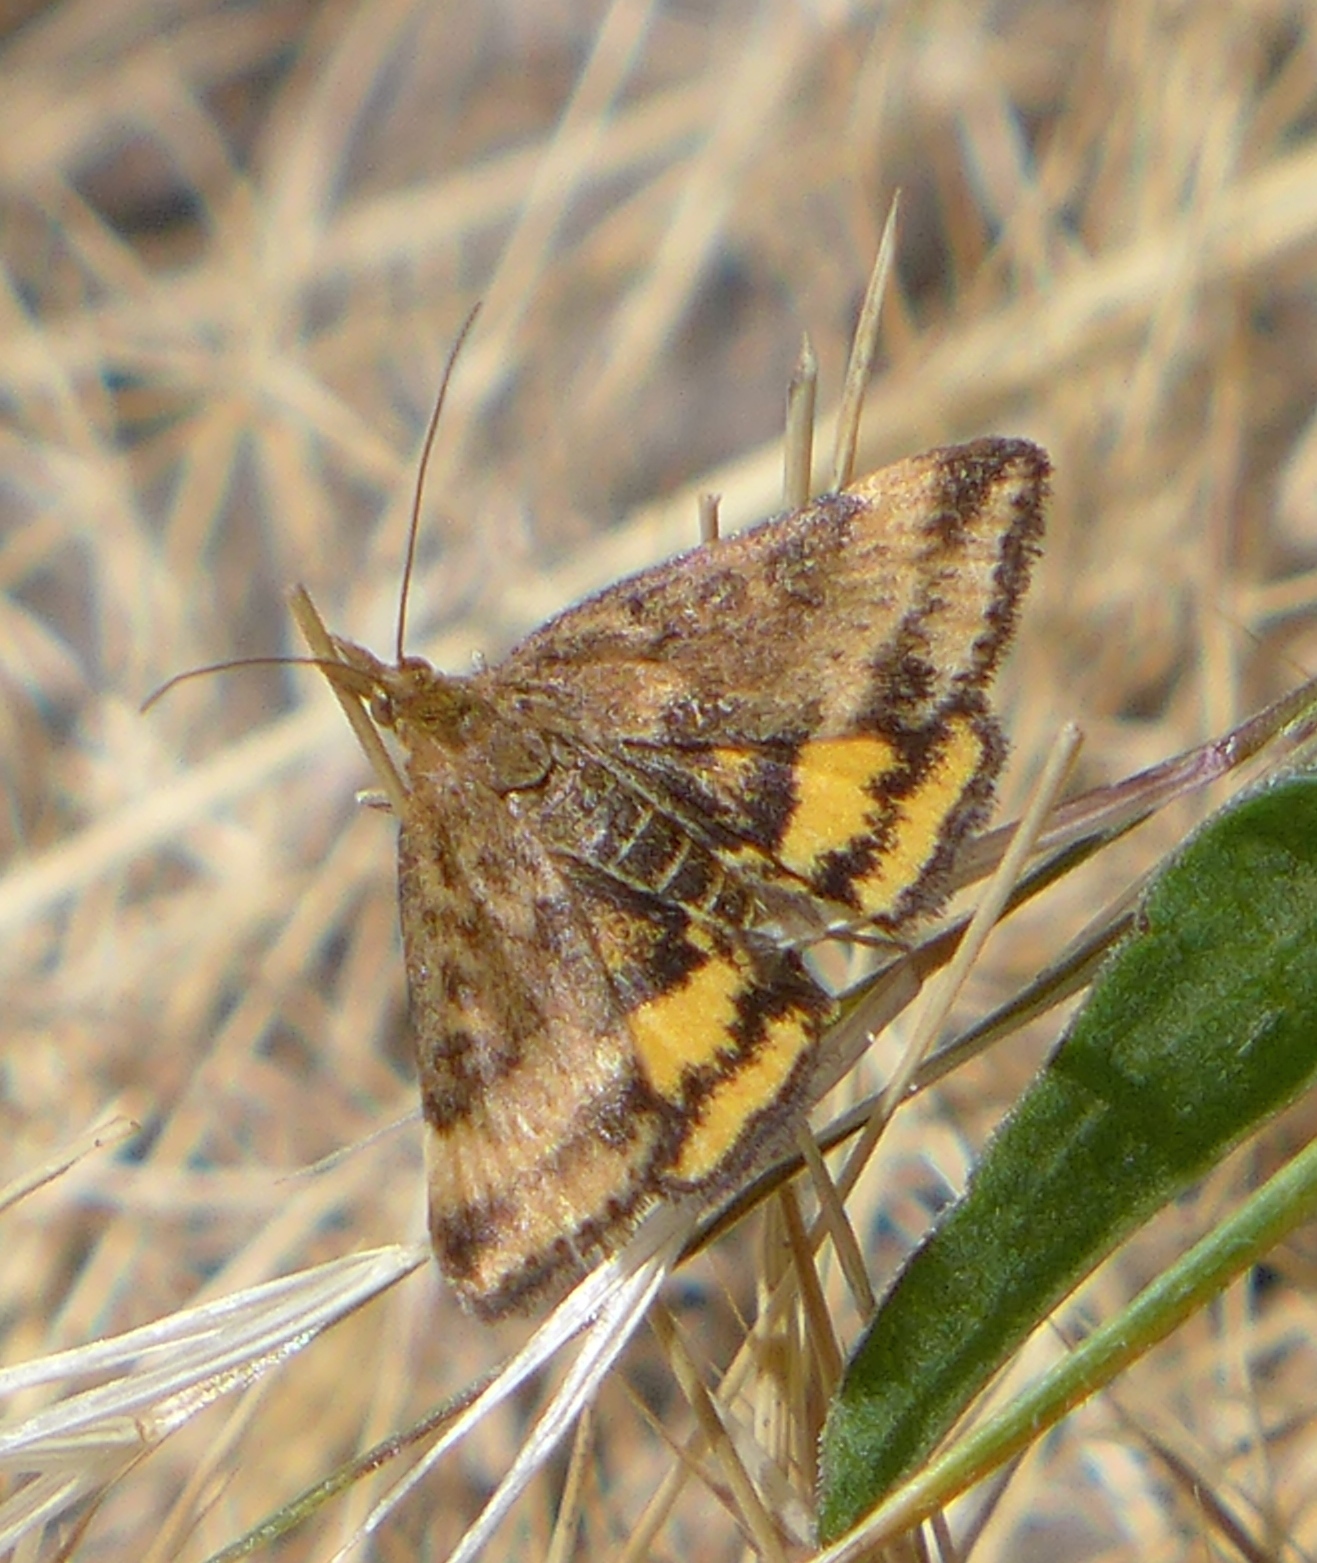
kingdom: Animalia
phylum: Arthropoda
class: Insecta
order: Lepidoptera
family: Crambidae
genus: Pyrausta
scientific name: Pyrausta subsequalis
